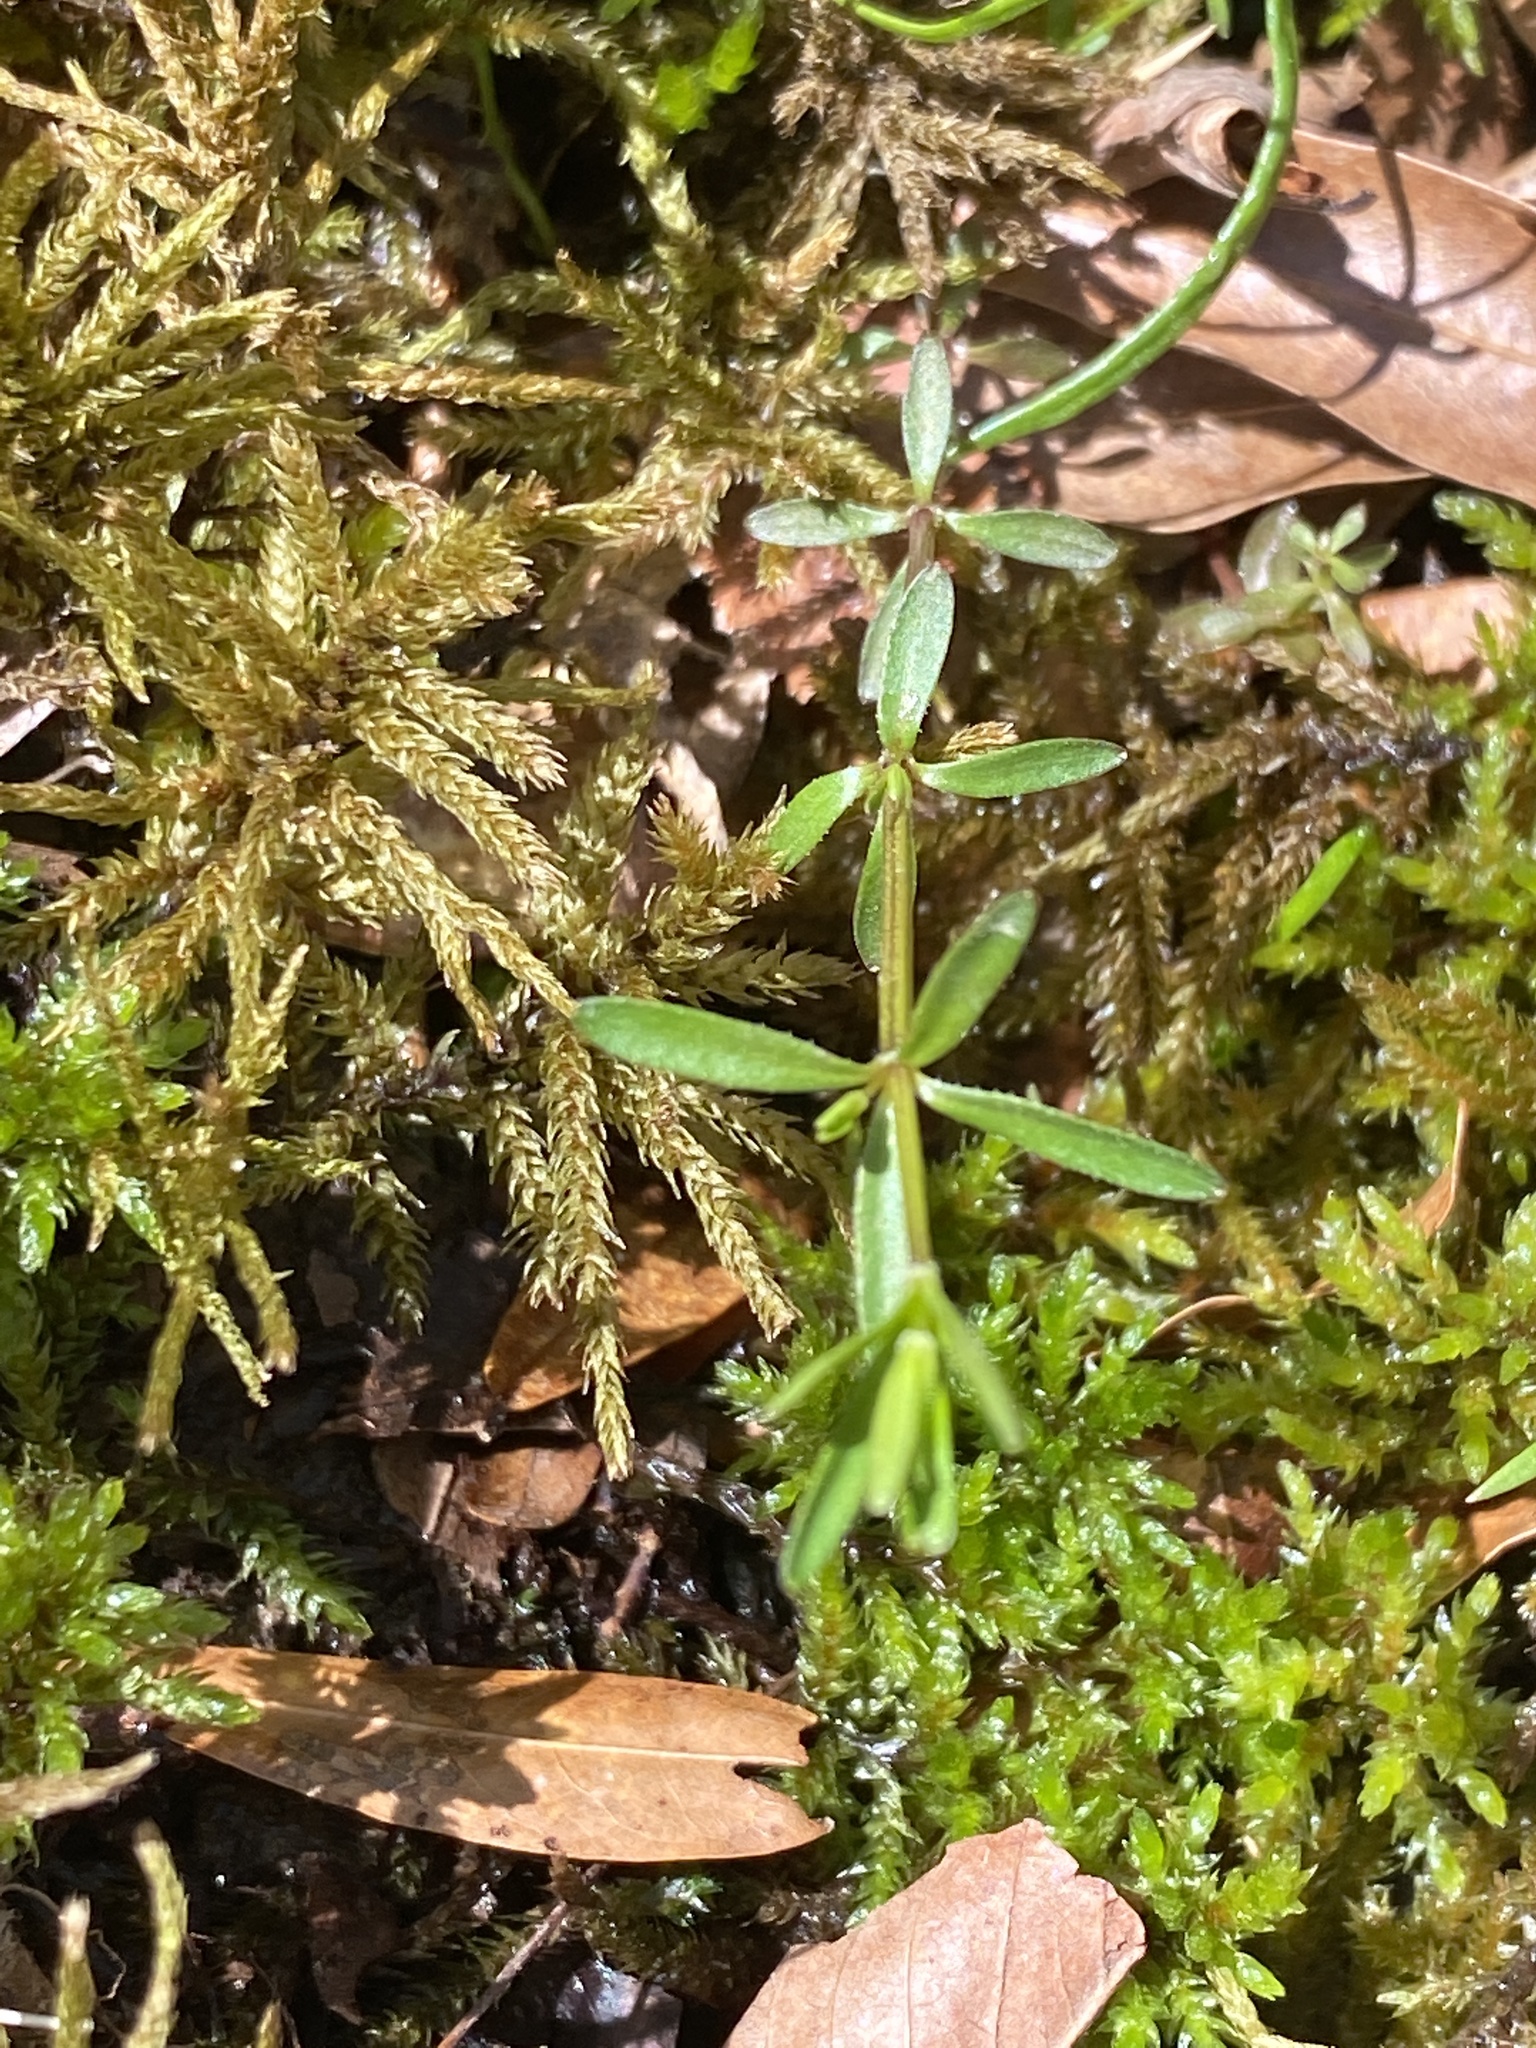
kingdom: Plantae
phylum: Tracheophyta
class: Magnoliopsida
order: Gentianales
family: Rubiaceae
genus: Galium
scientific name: Galium obtusum
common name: Blunt-leaved bedstraw
